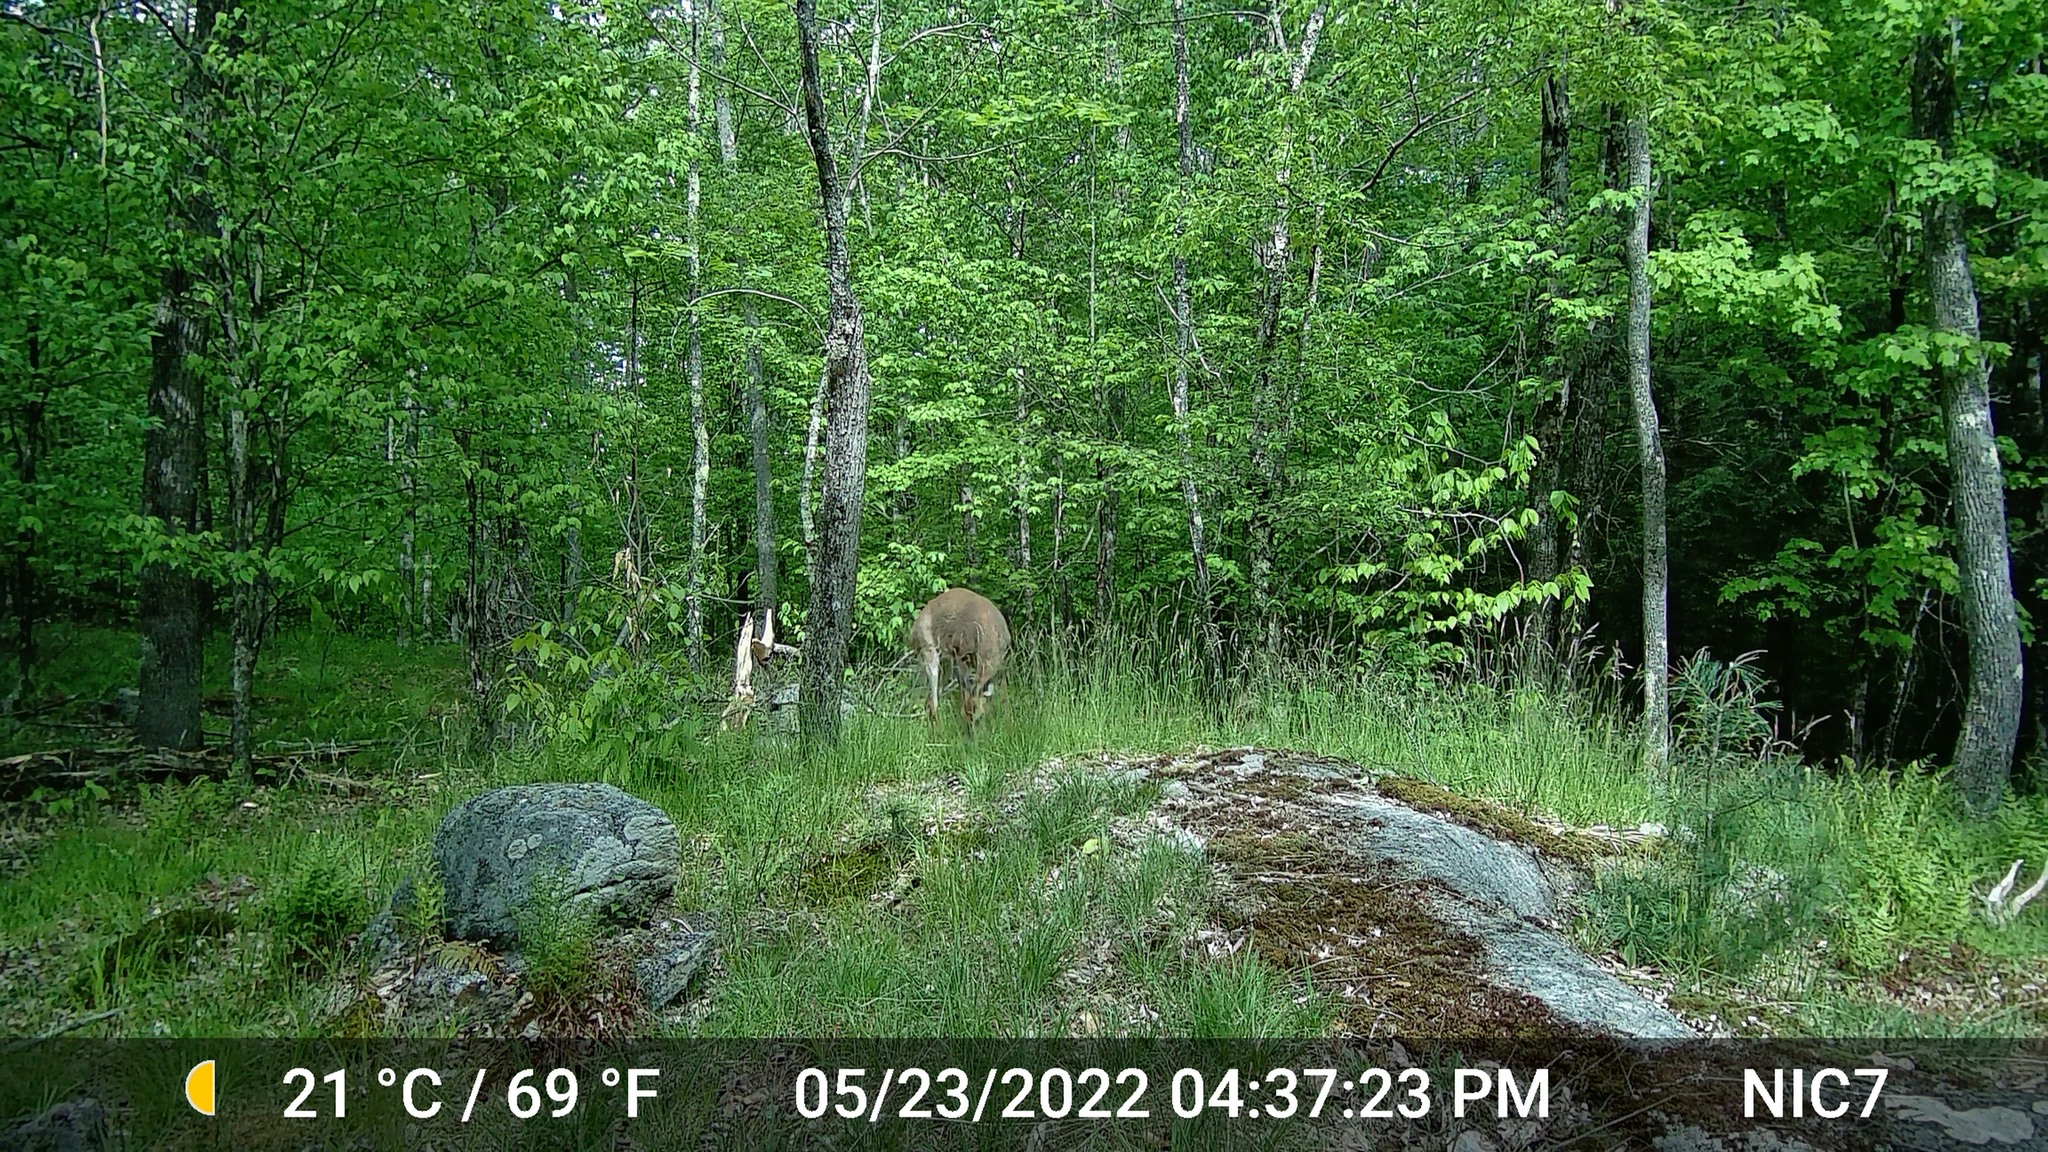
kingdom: Animalia
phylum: Chordata
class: Mammalia
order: Artiodactyla
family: Cervidae
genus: Odocoileus
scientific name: Odocoileus virginianus
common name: White-tailed deer
